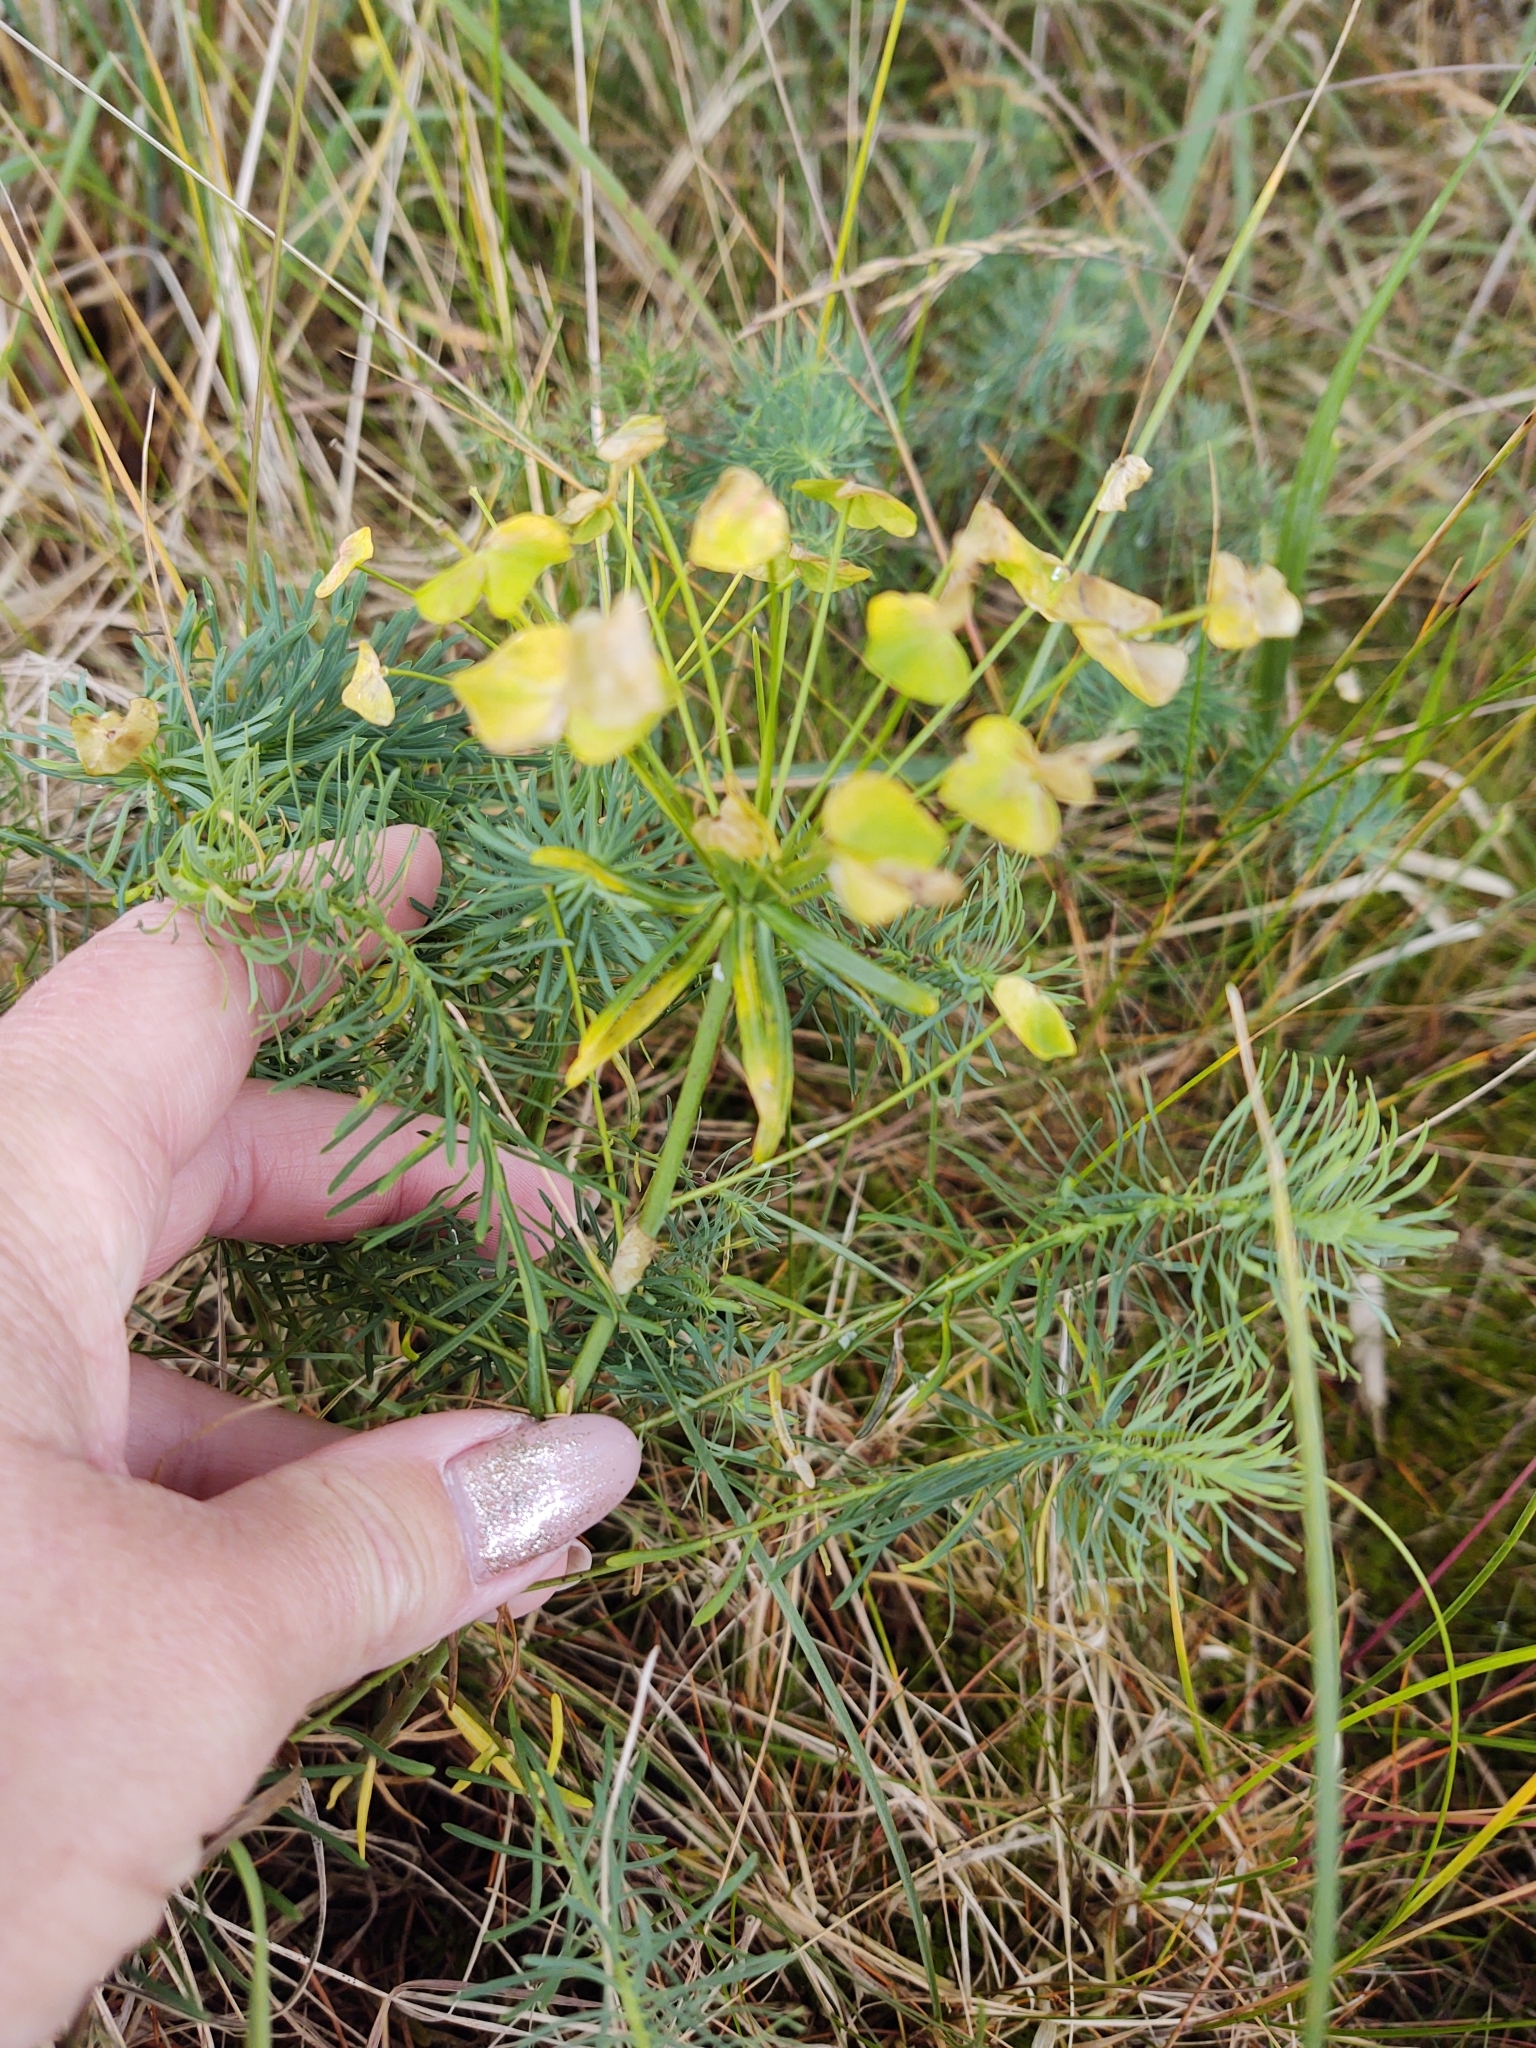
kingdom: Plantae
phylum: Tracheophyta
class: Magnoliopsida
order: Malpighiales
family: Euphorbiaceae
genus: Euphorbia
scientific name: Euphorbia cyparissias
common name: Cypress spurge
